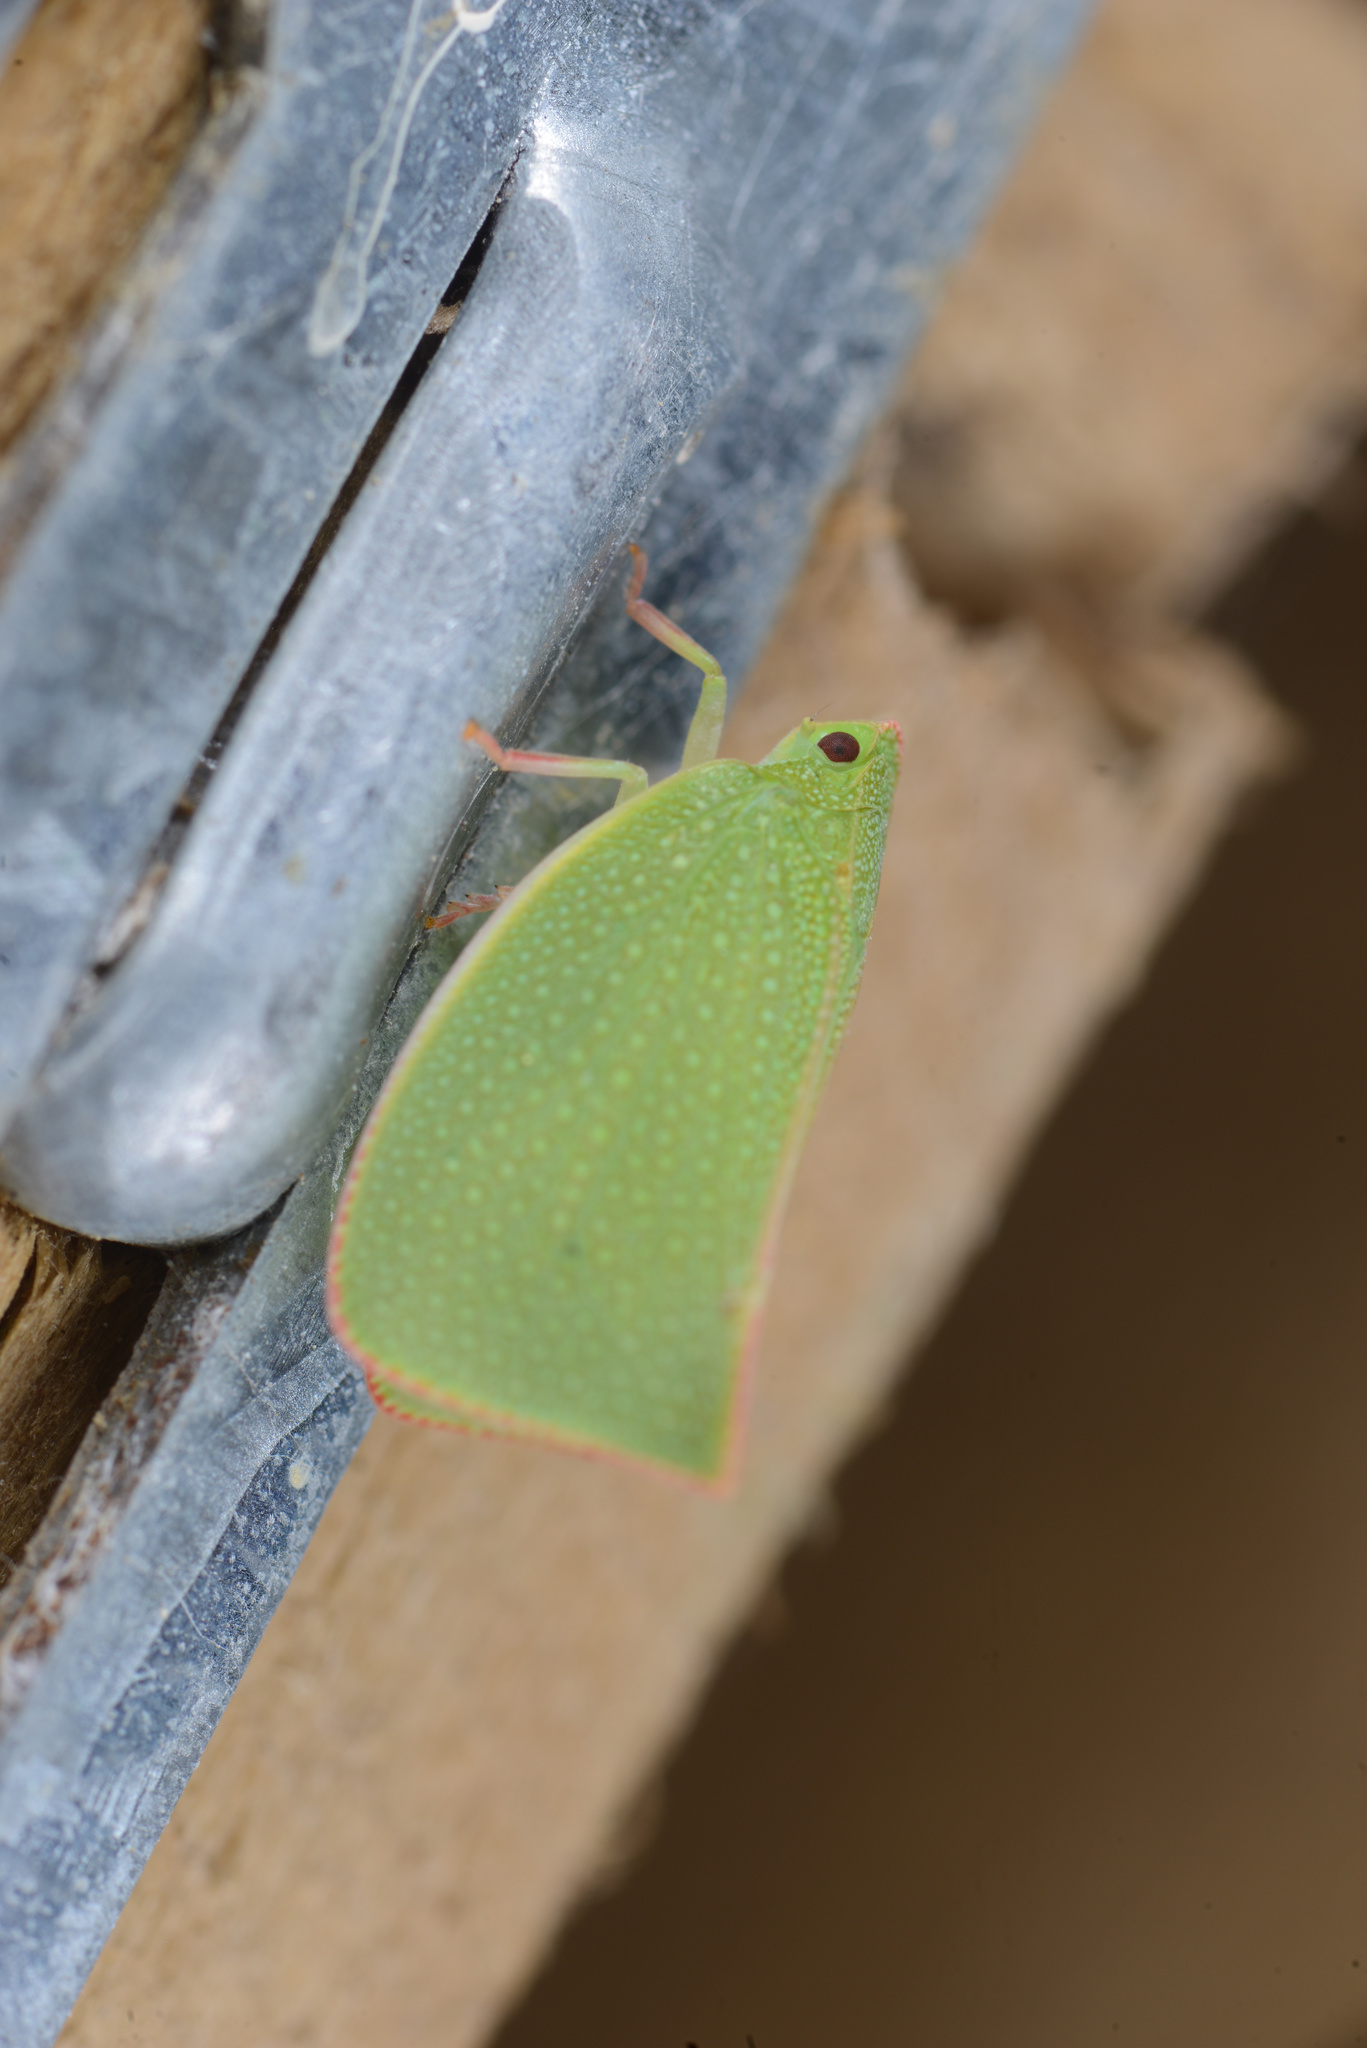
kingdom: Animalia
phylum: Arthropoda
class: Insecta
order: Hemiptera
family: Flatidae
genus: Siphanta
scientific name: Siphanta acuta
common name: Torpedo bug
